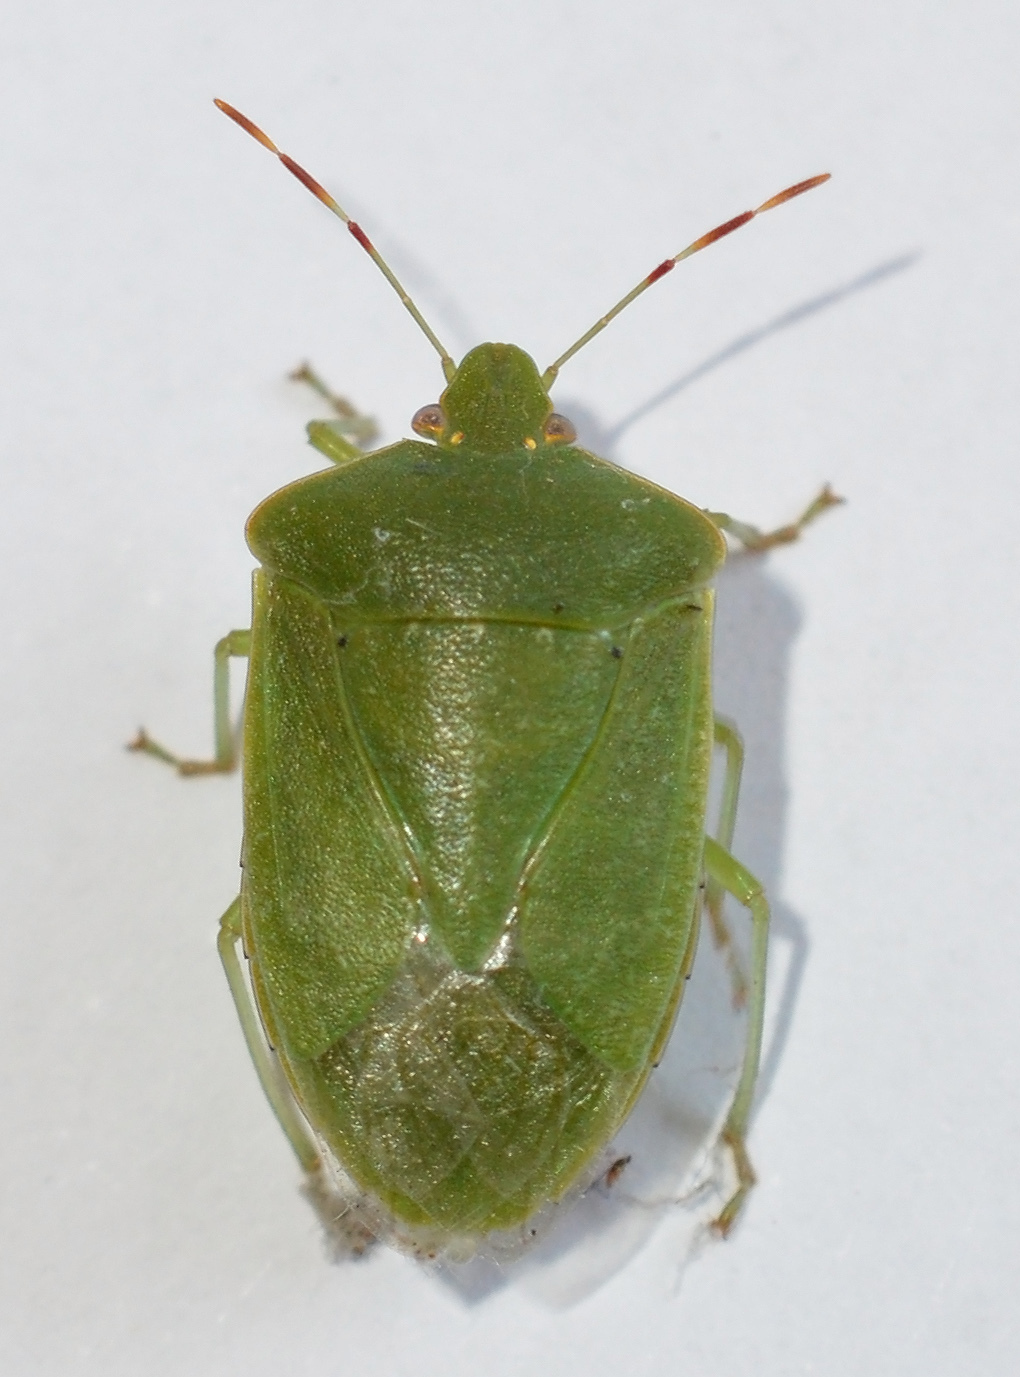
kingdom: Animalia
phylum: Arthropoda
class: Insecta
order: Hemiptera
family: Pentatomidae
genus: Nezara
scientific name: Nezara viridula
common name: Southern green stink bug
